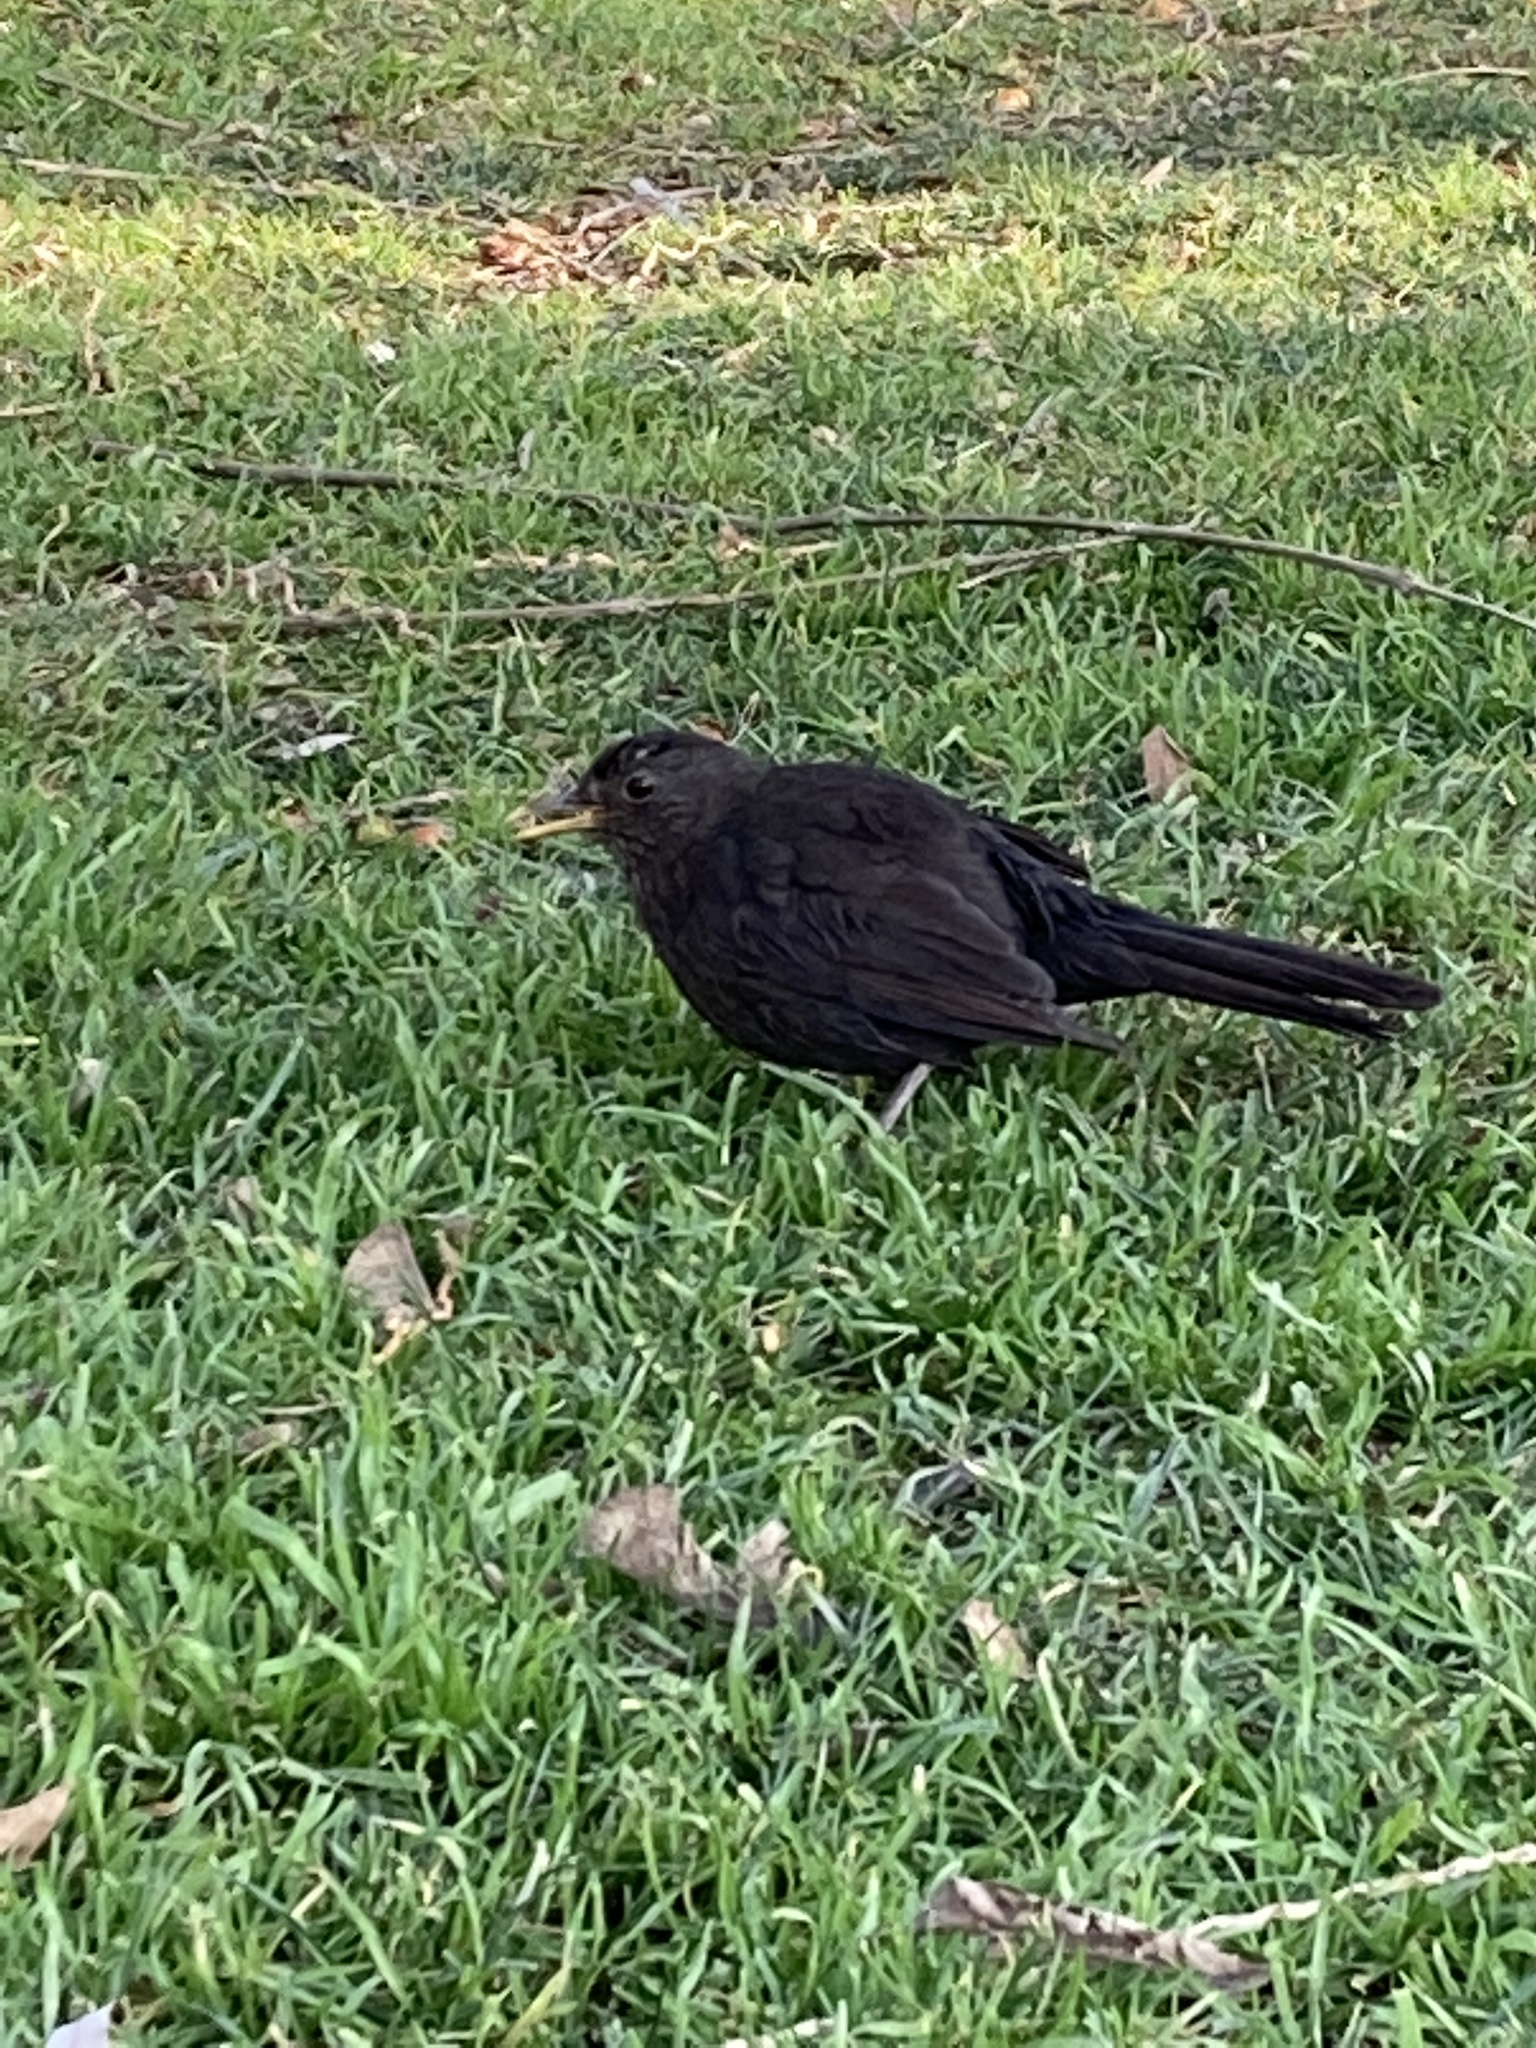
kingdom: Animalia
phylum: Chordata
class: Aves
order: Passeriformes
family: Turdidae
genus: Turdus
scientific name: Turdus merula
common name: Common blackbird
